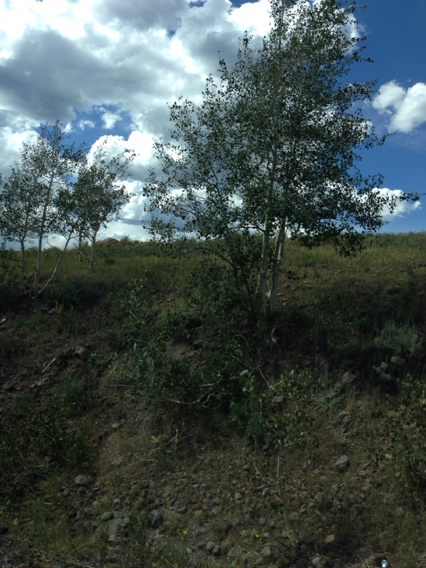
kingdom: Plantae
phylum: Tracheophyta
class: Magnoliopsida
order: Malpighiales
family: Salicaceae
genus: Populus
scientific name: Populus tremuloides
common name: Quaking aspen
